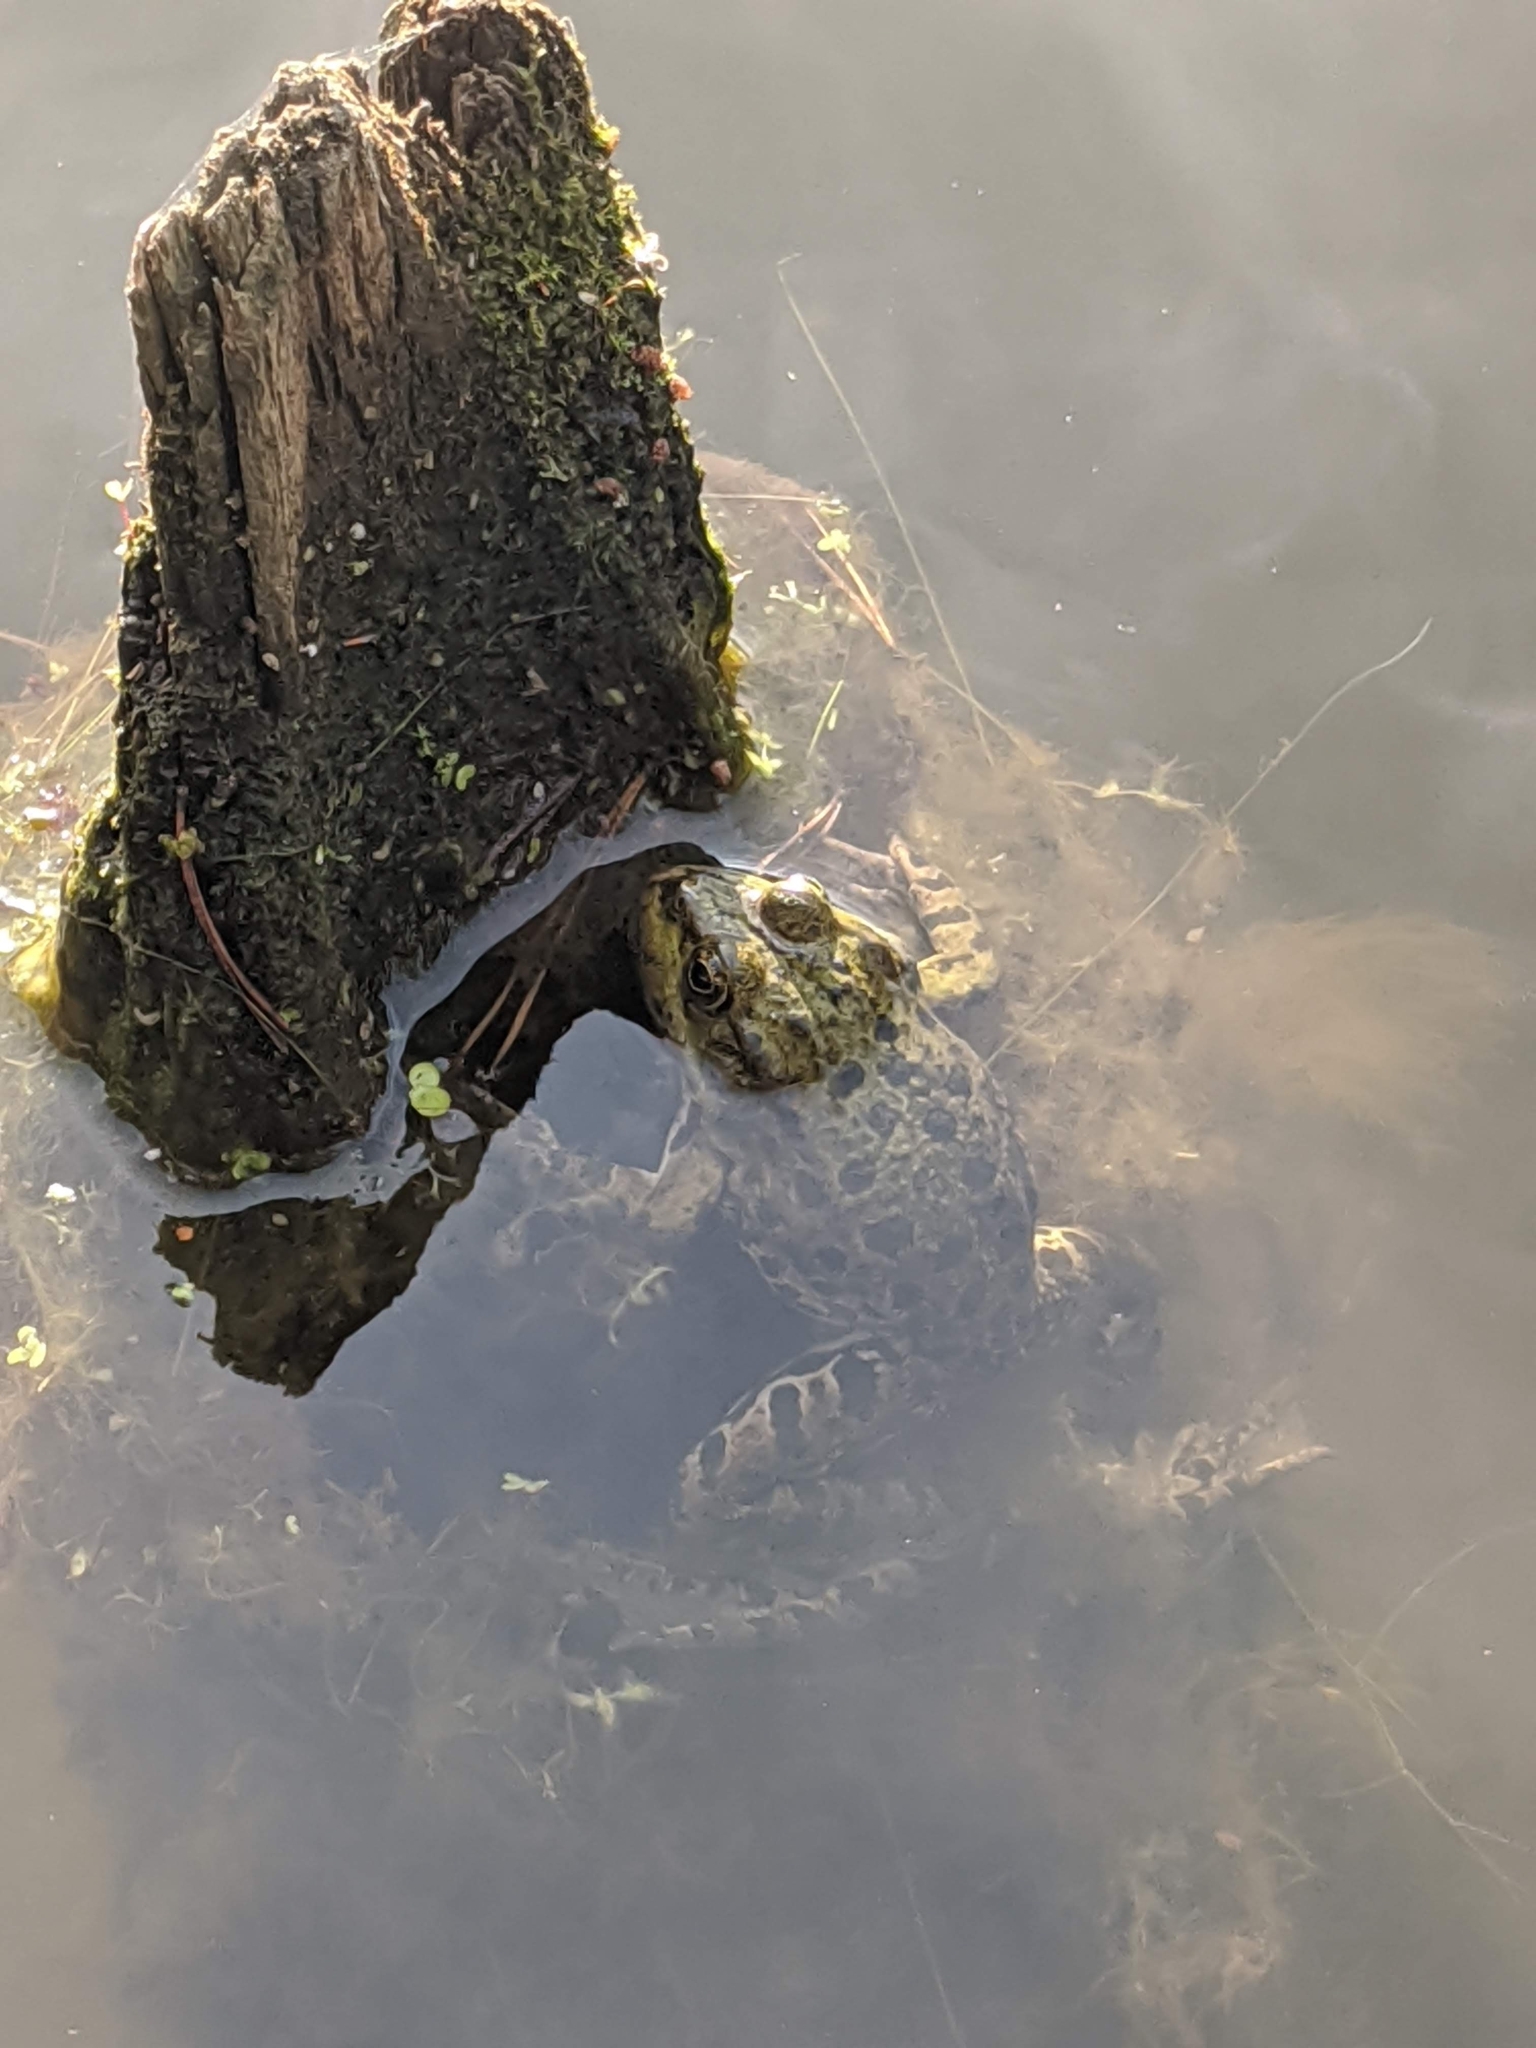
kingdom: Animalia
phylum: Chordata
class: Amphibia
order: Anura
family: Ranidae
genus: Pelophylax
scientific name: Pelophylax ridibundus
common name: Marsh frog
